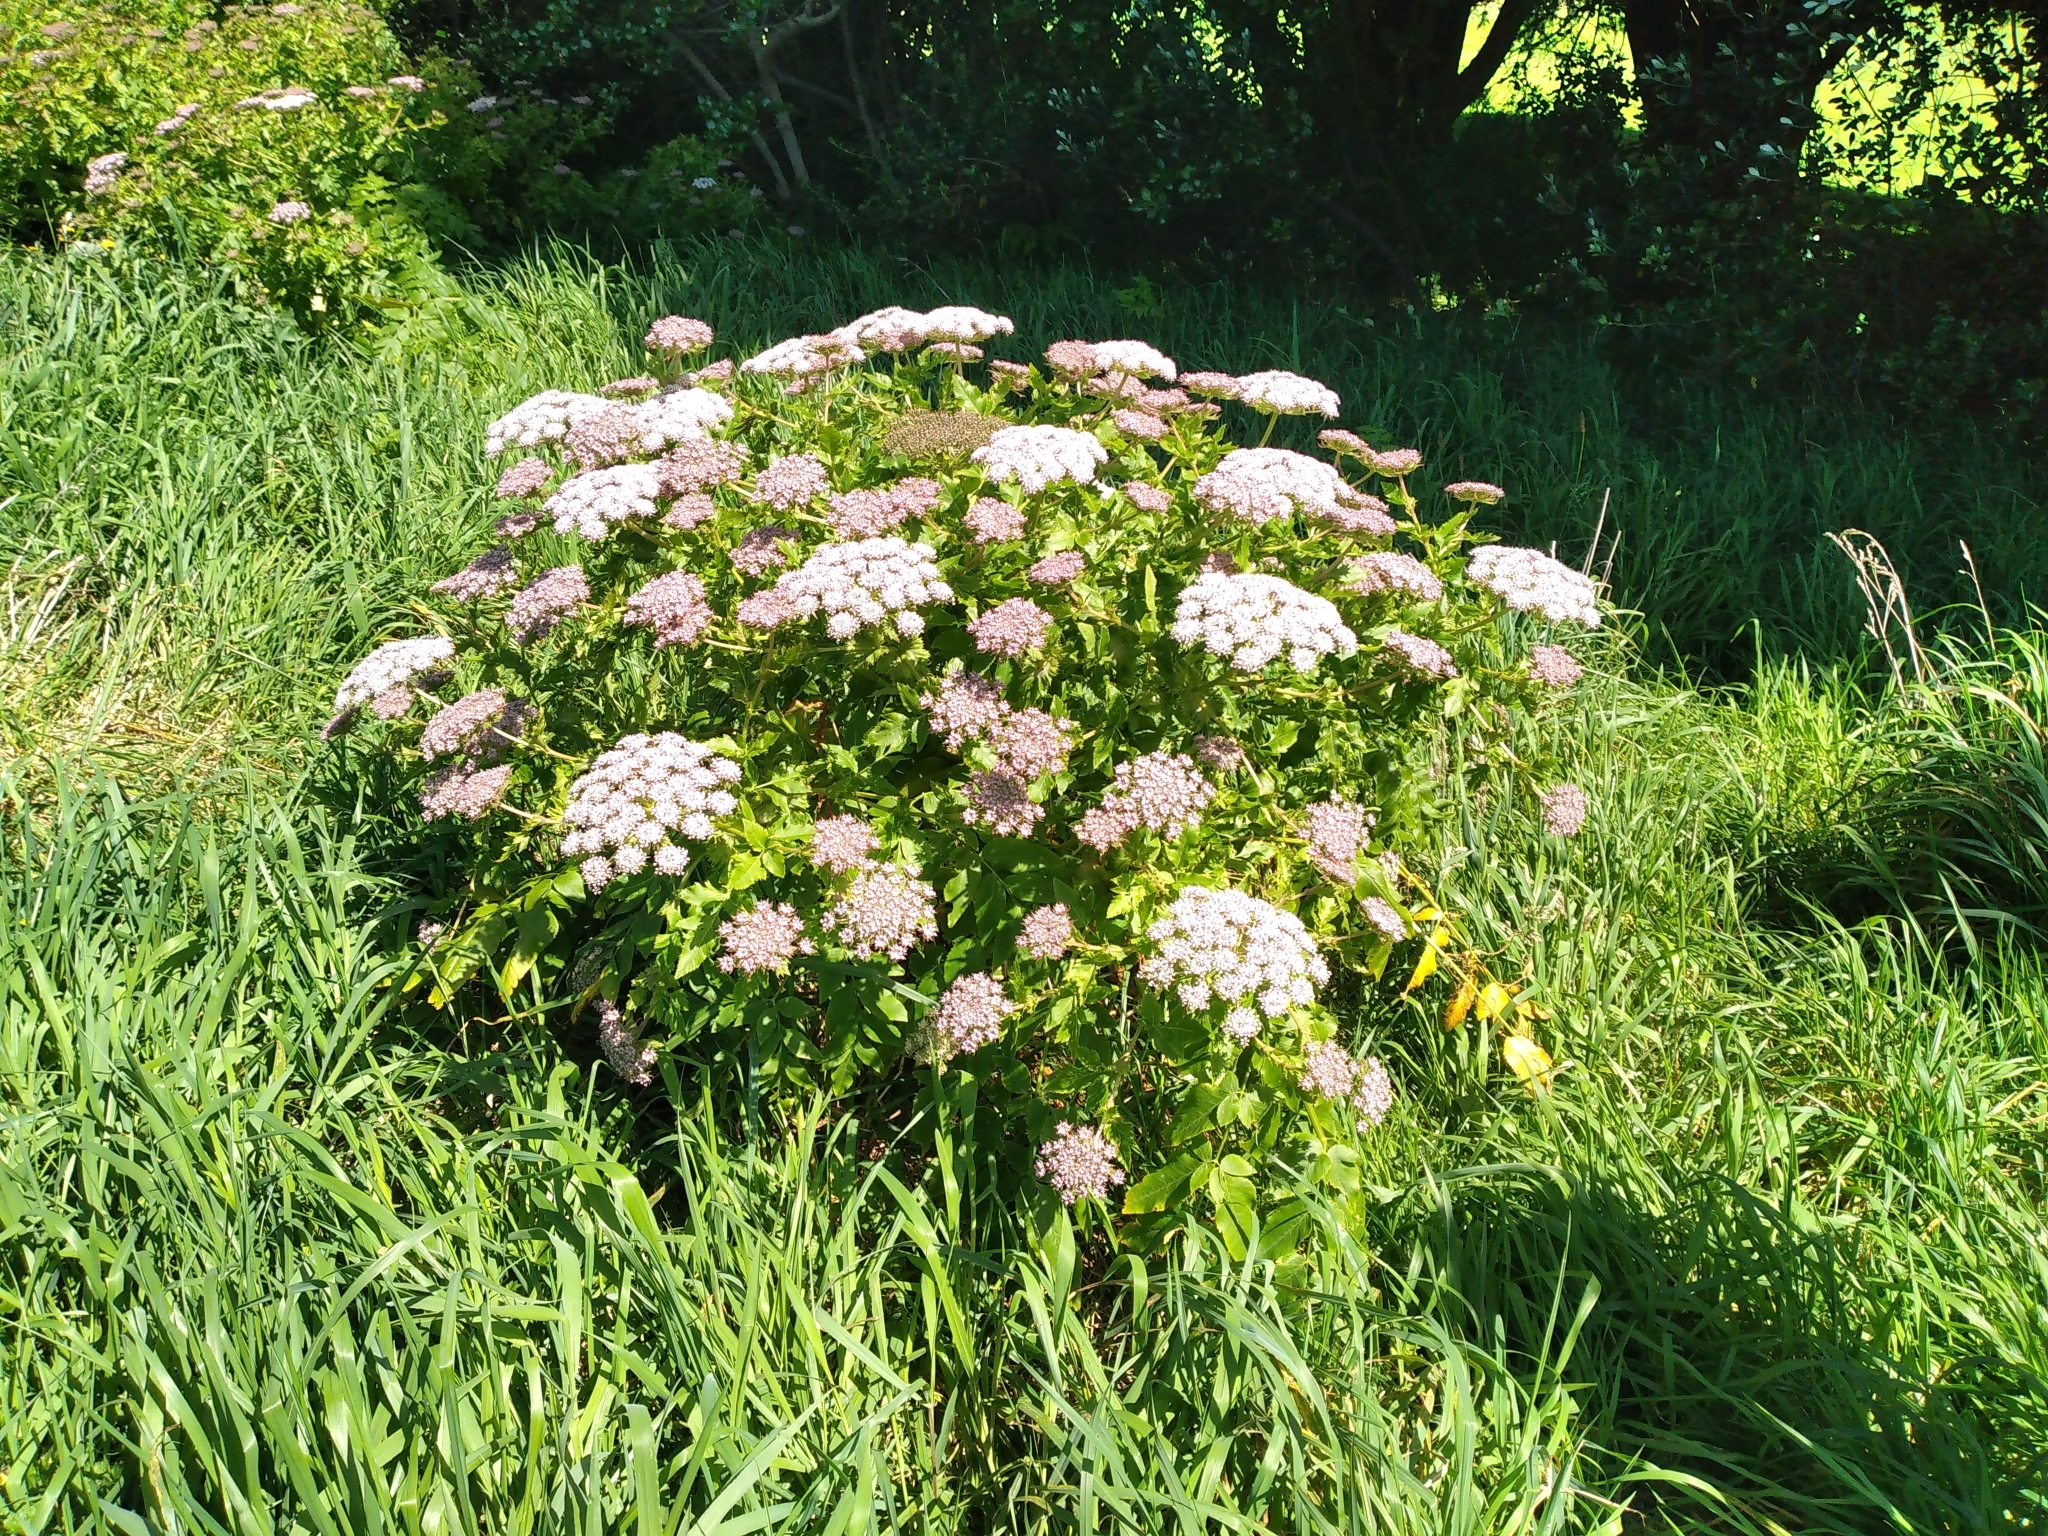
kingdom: Plantae
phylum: Tracheophyta
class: Magnoliopsida
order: Apiales
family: Apiaceae
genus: Daucus
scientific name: Daucus decipiens
